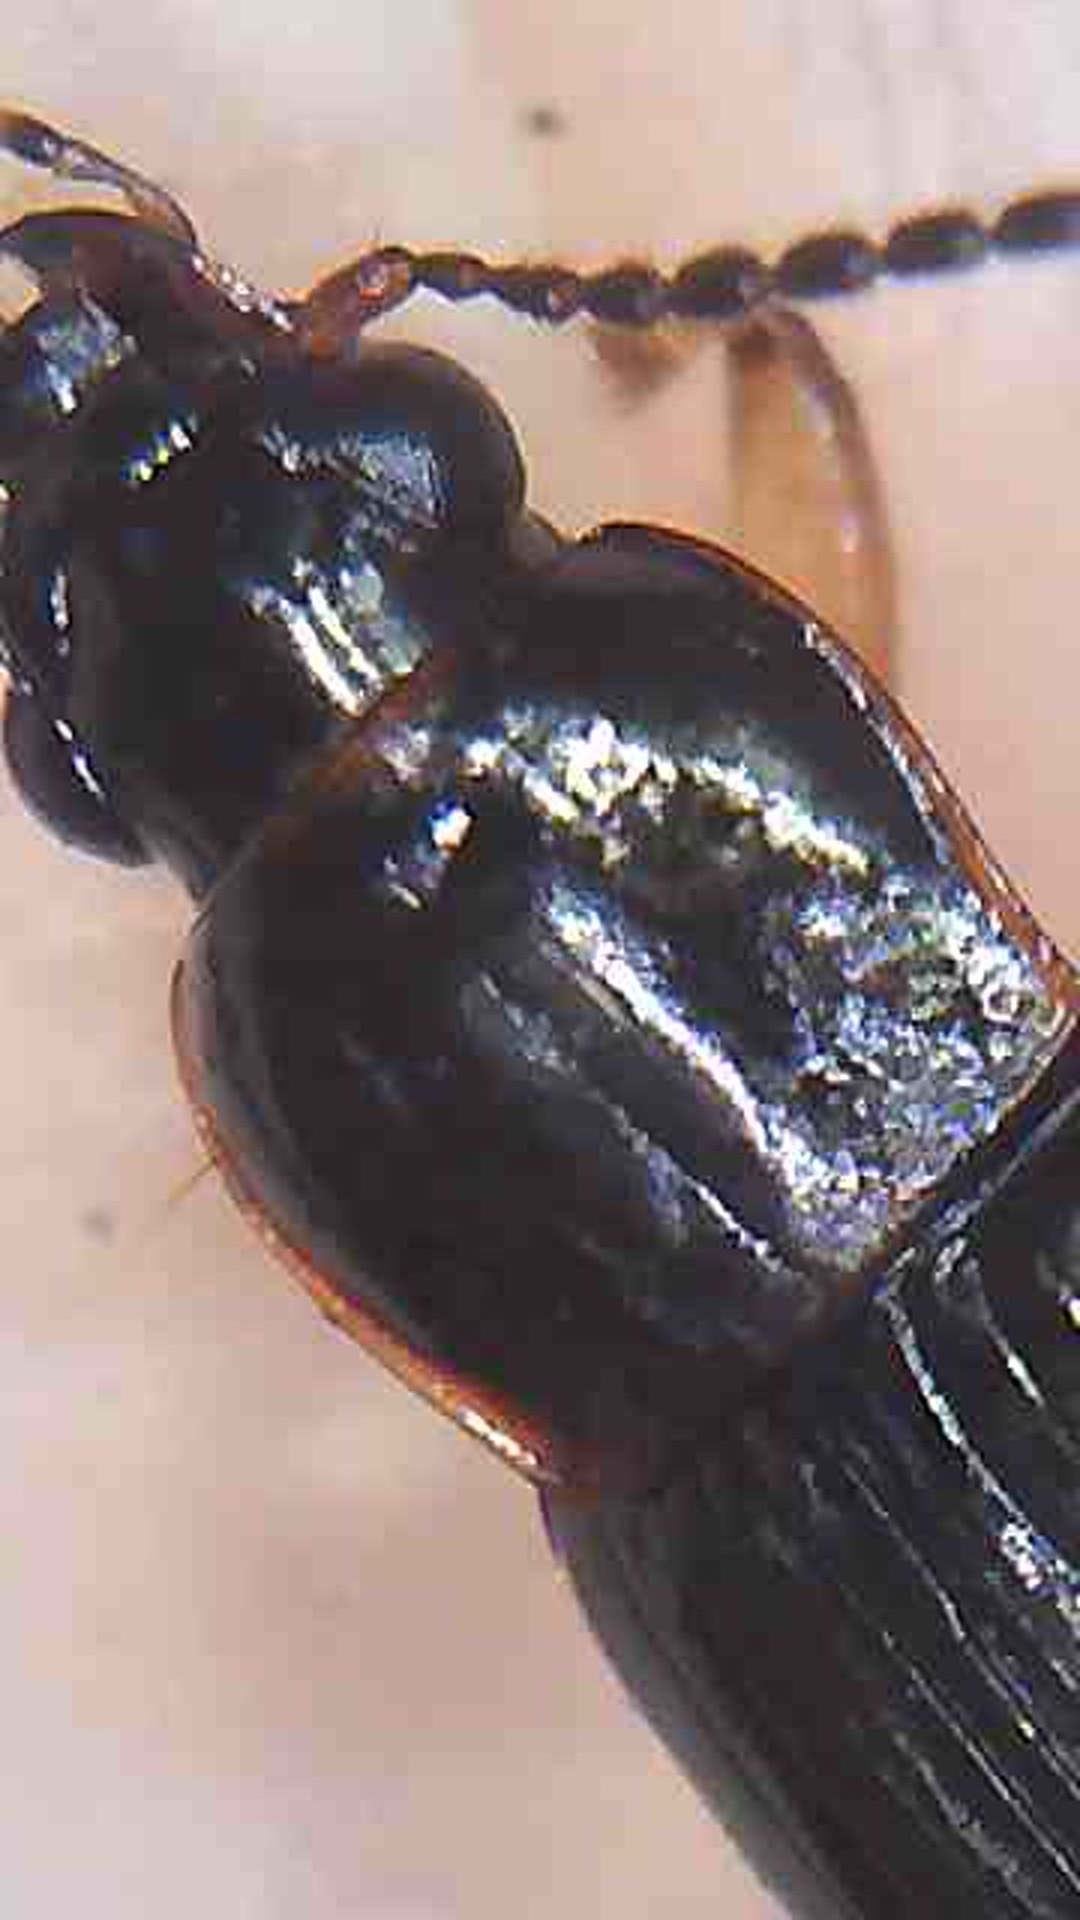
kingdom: Animalia
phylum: Arthropoda
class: Insecta
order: Coleoptera
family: Carabidae
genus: Euthenarus
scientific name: Euthenarus promptus
